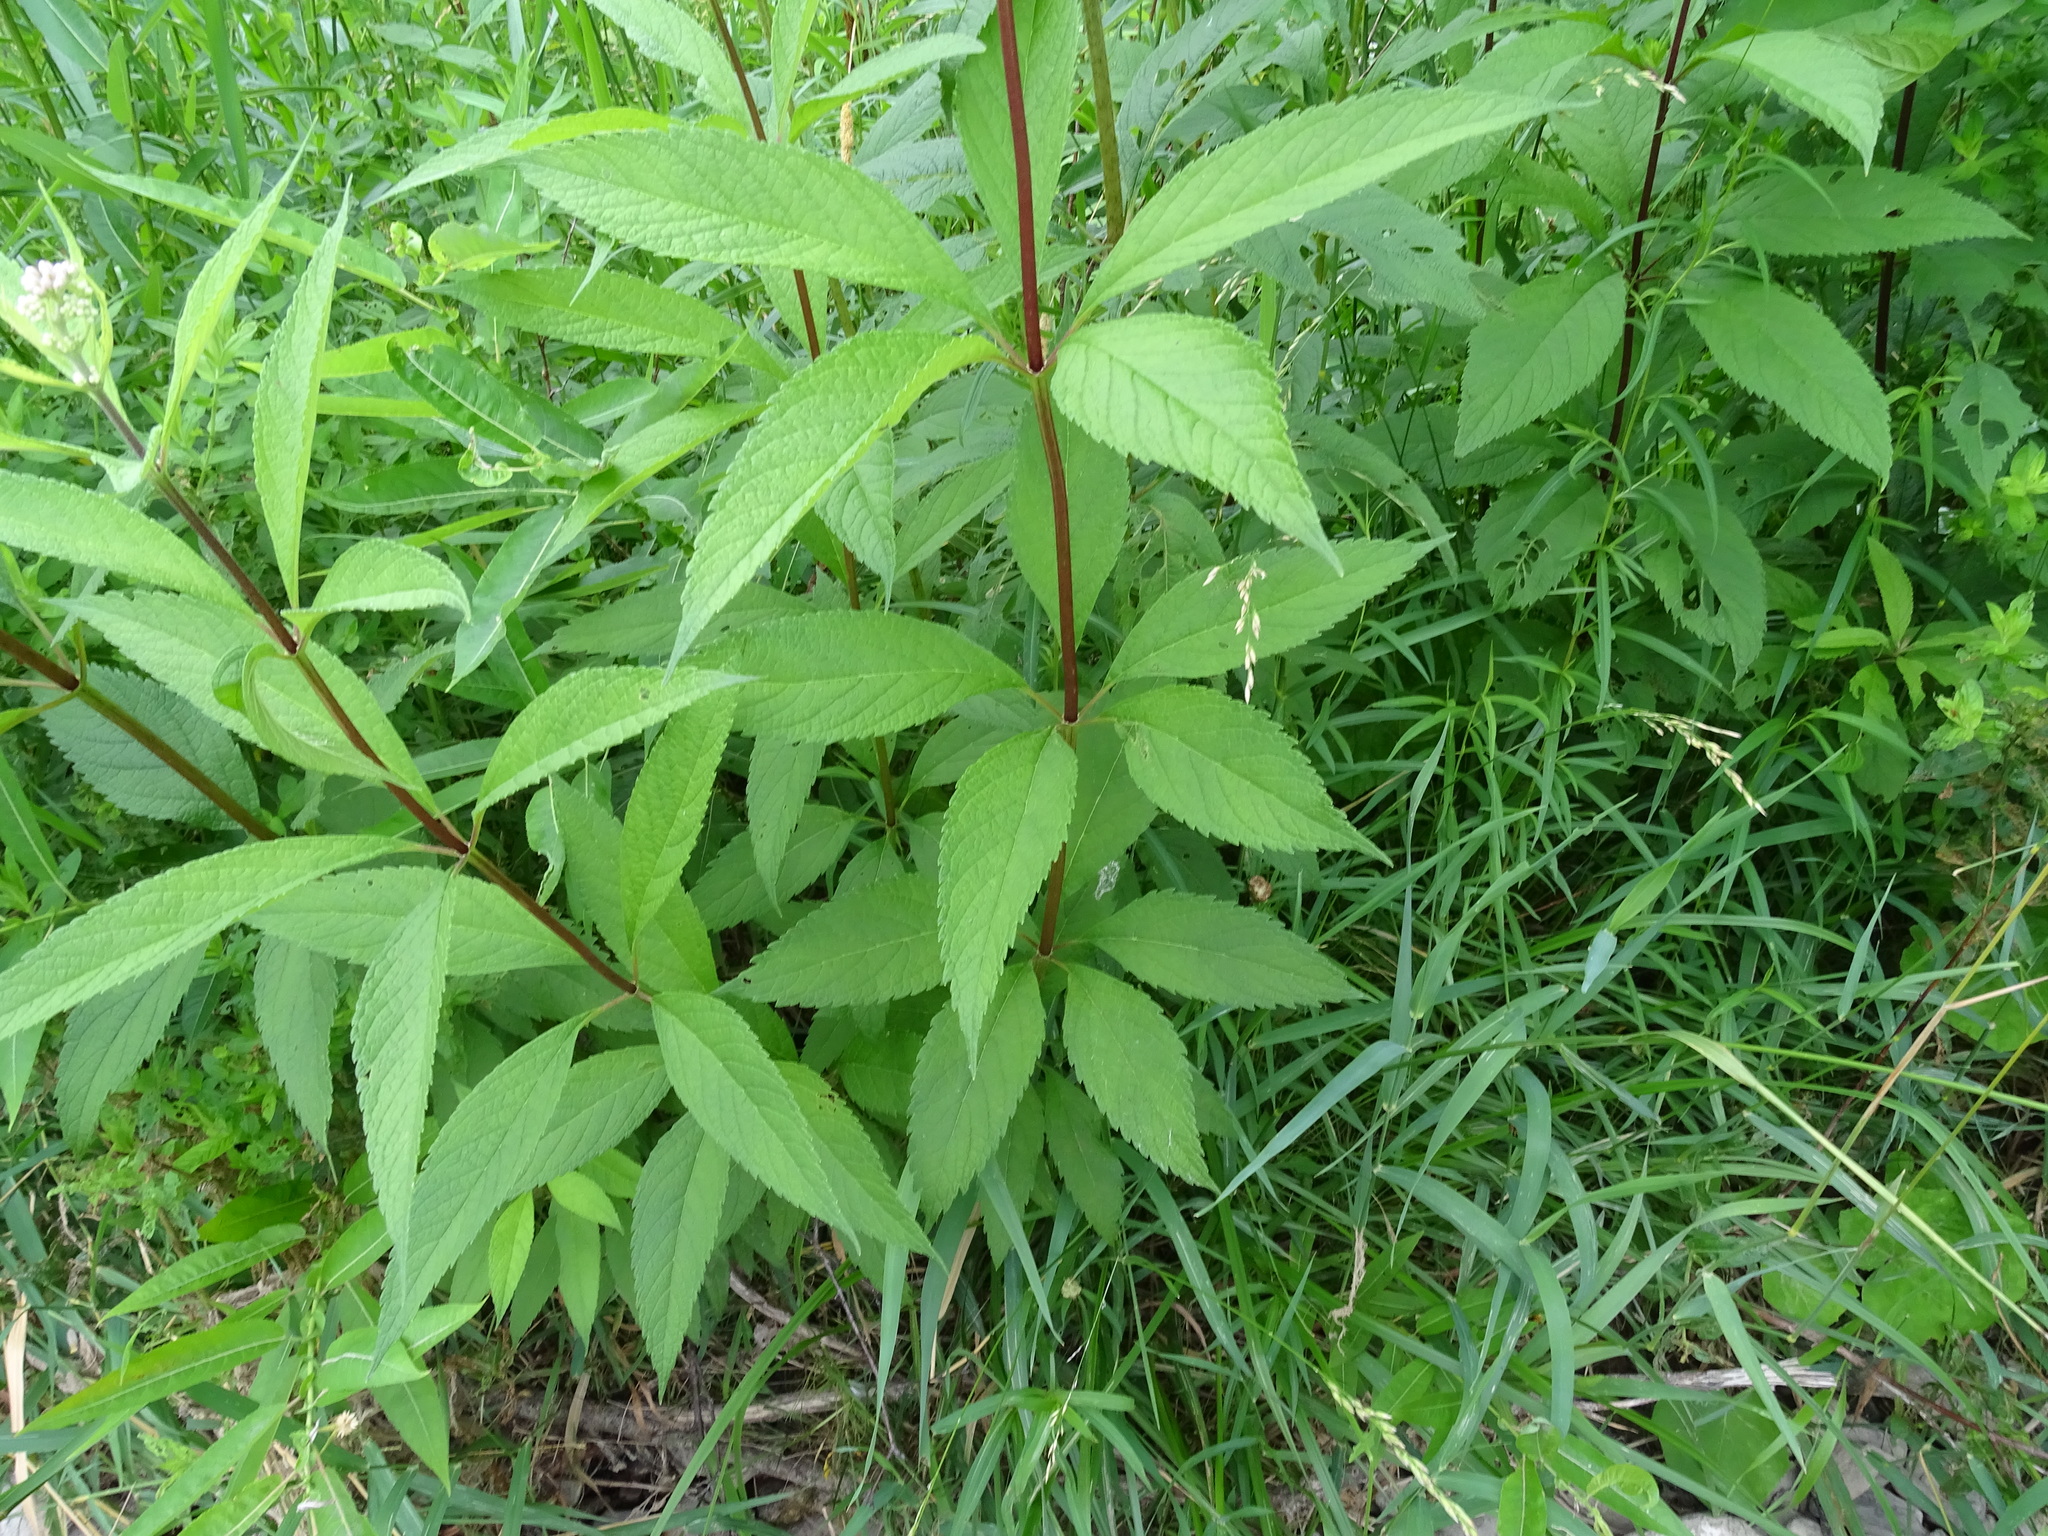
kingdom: Plantae
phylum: Tracheophyta
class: Magnoliopsida
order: Asterales
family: Asteraceae
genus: Eutrochium
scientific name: Eutrochium maculatum
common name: Spotted joe pye weed
